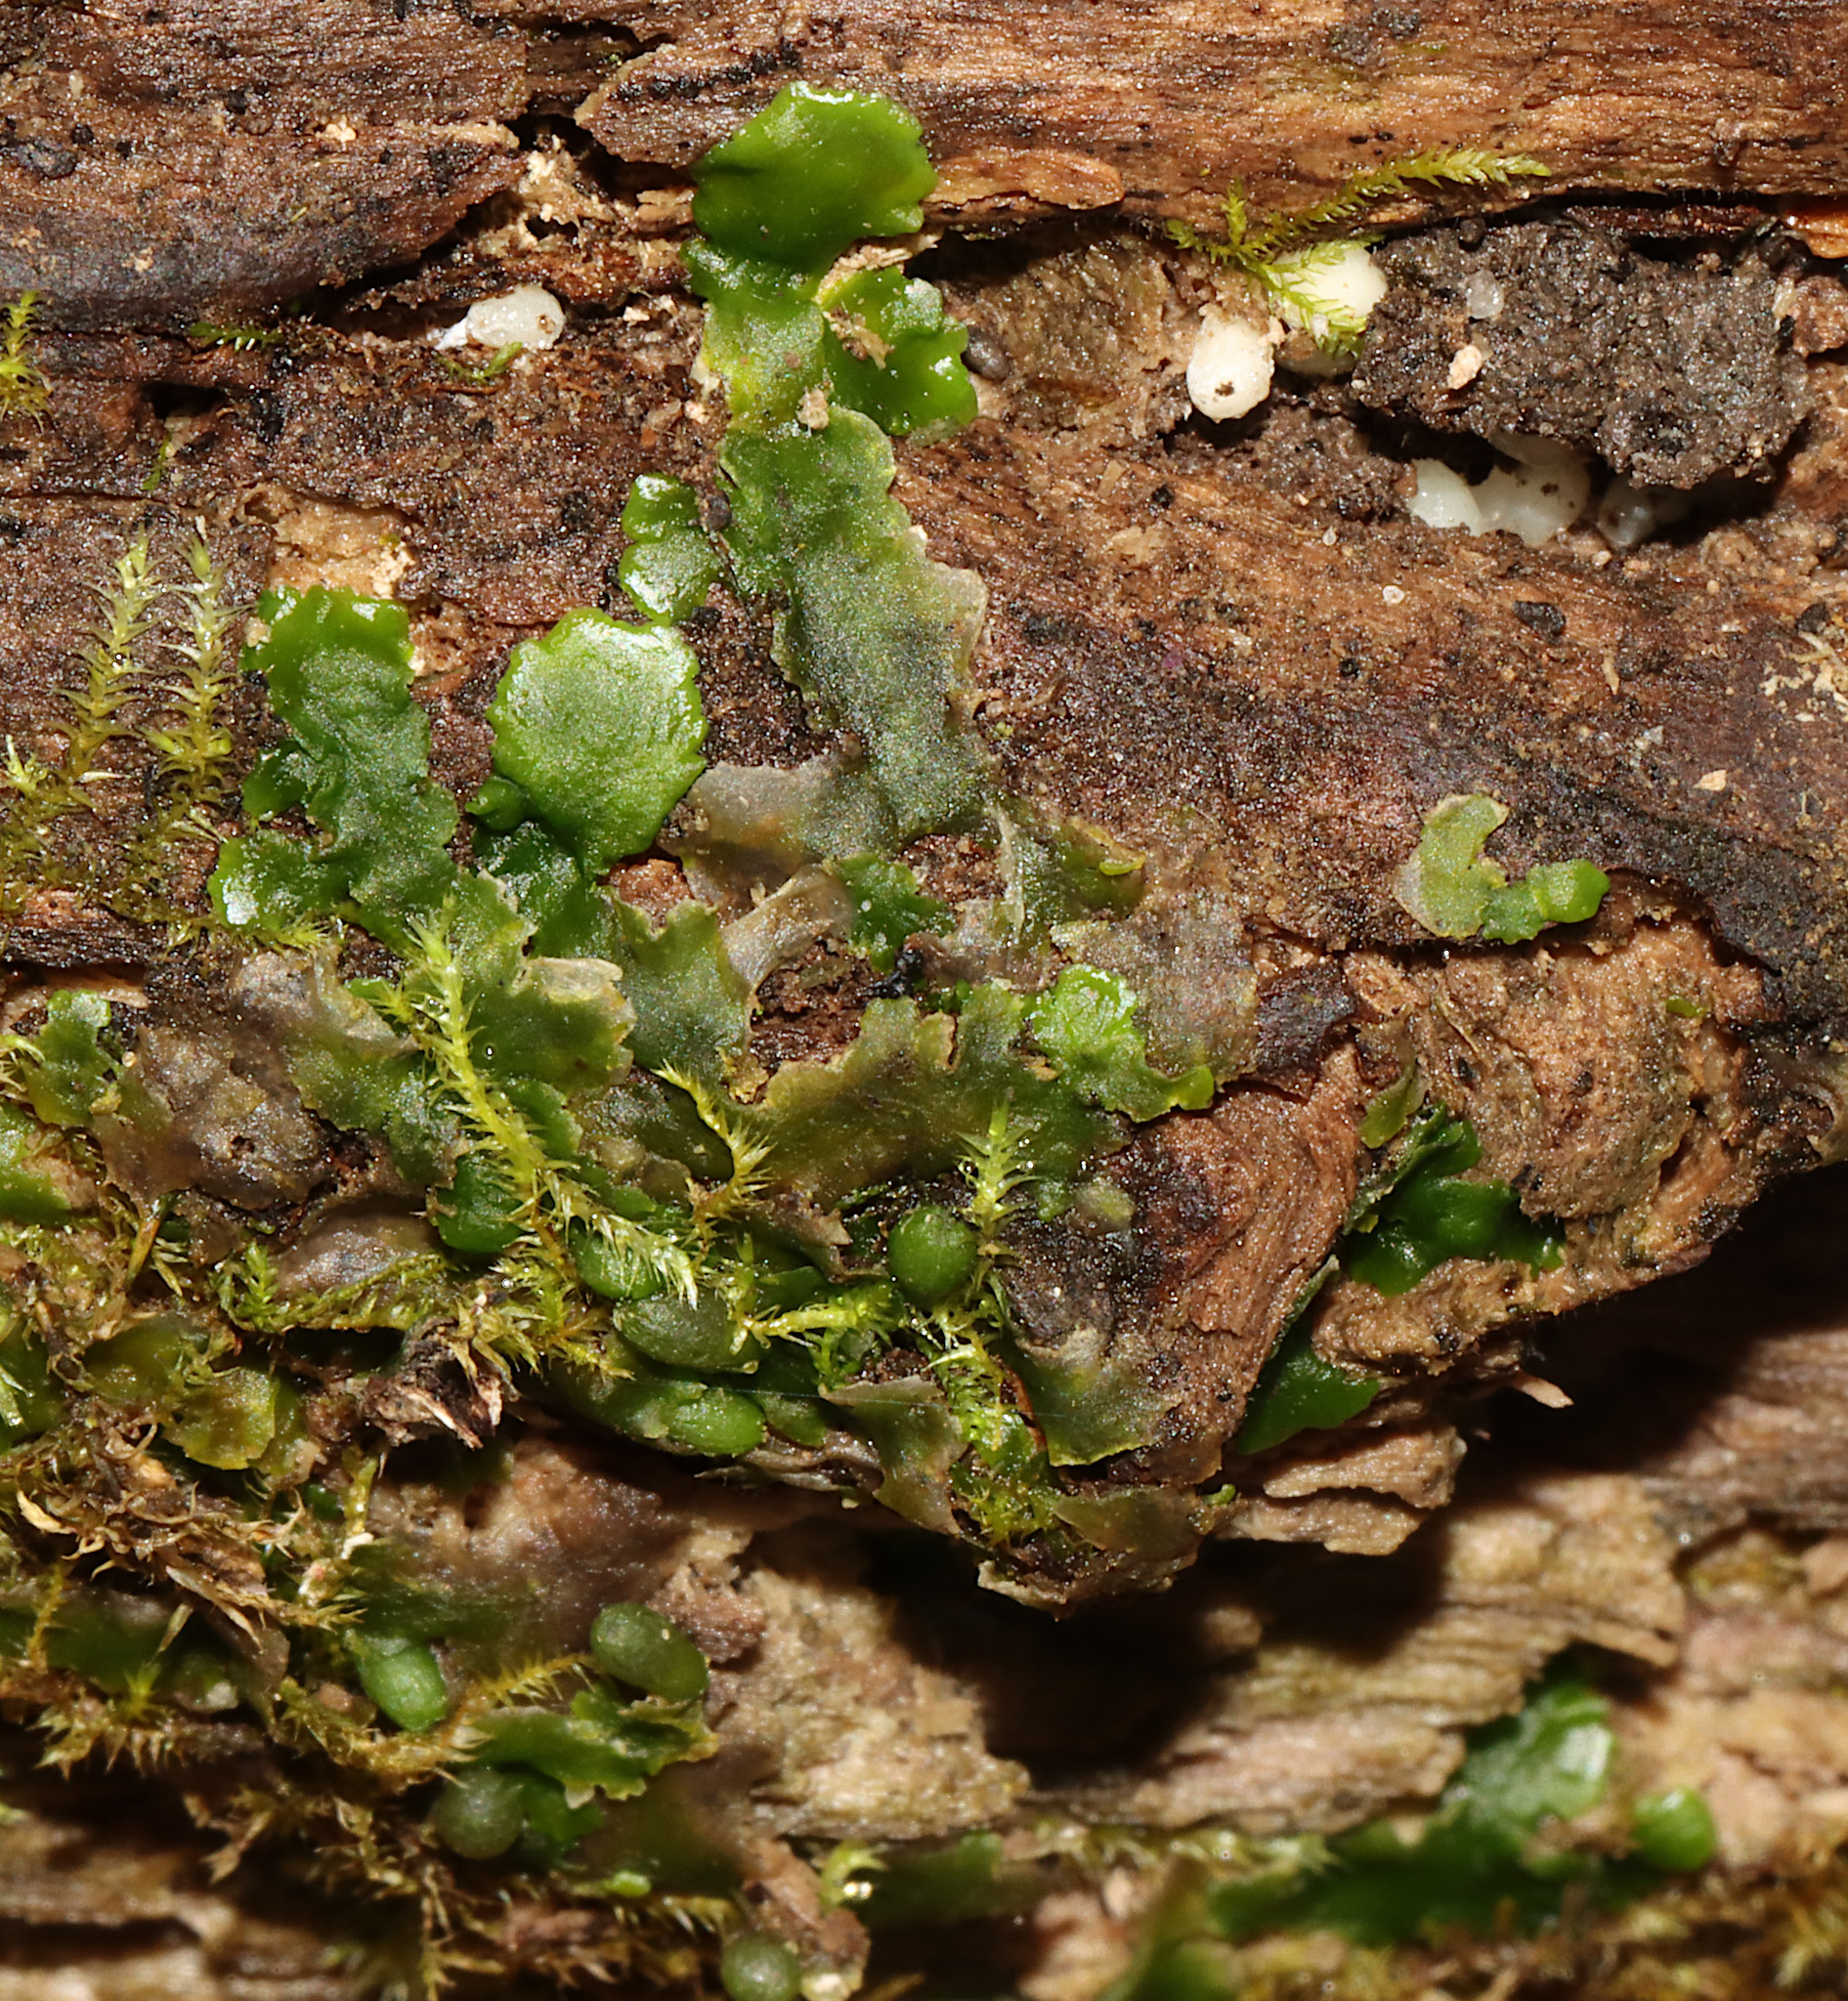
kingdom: Plantae
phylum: Marchantiophyta
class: Jungermanniopsida
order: Metzgeriales
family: Aneuraceae
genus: Aneura
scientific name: Aneura pinguis
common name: Common greasewort
